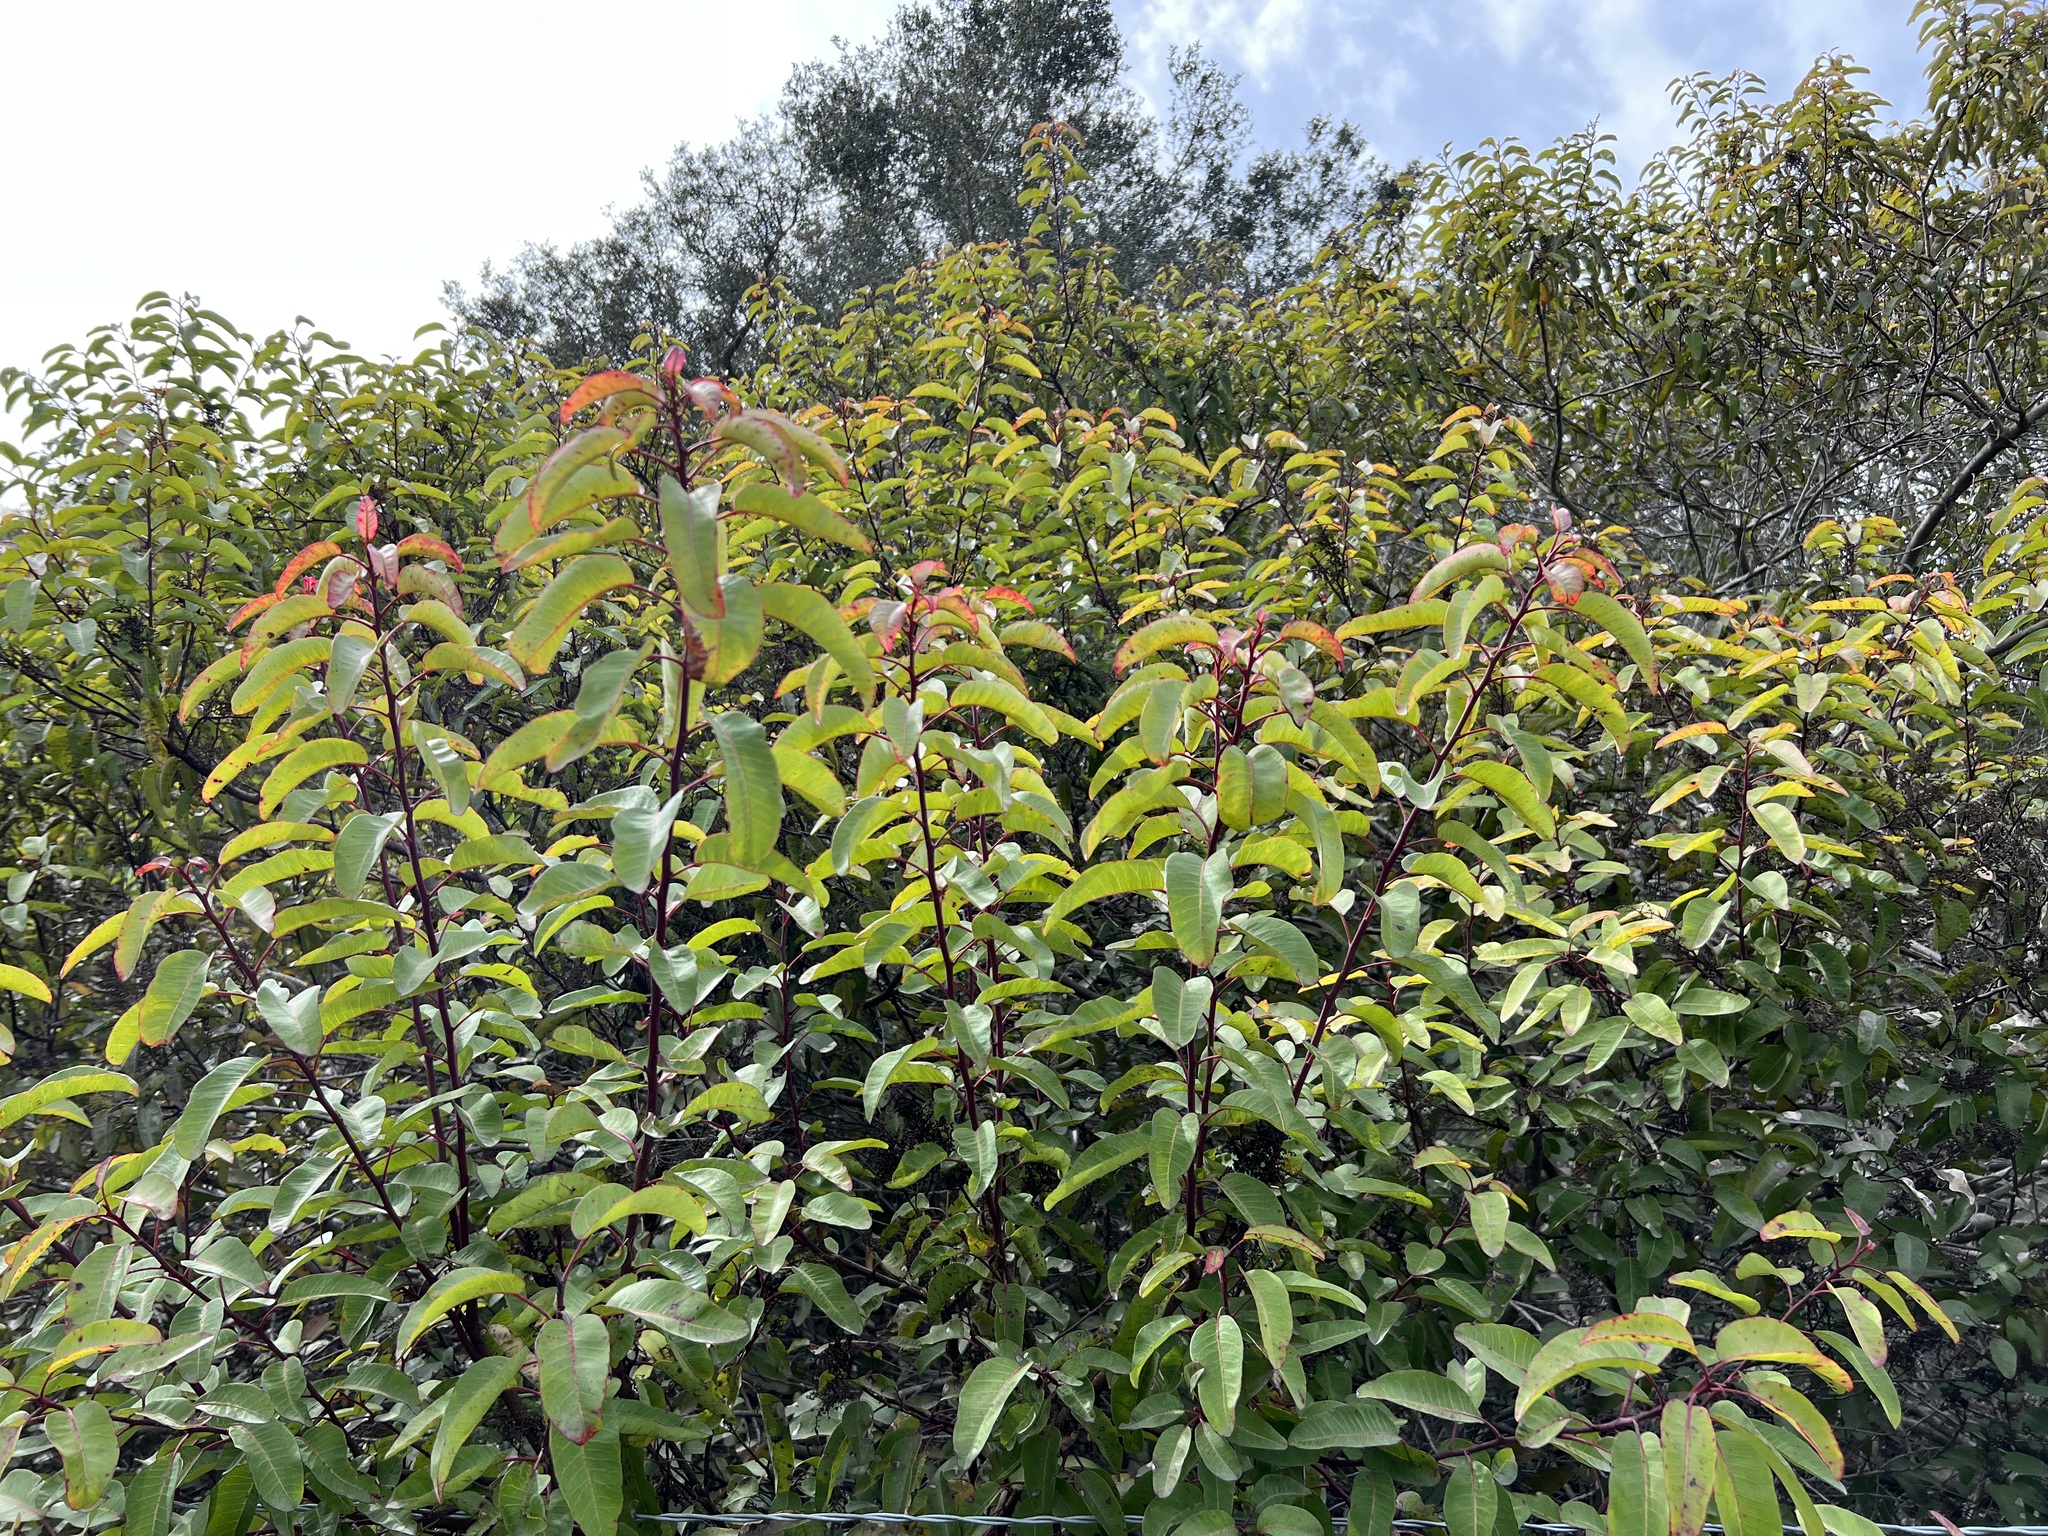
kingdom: Plantae
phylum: Tracheophyta
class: Magnoliopsida
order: Sapindales
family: Anacardiaceae
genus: Malosma
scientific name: Malosma laurina
